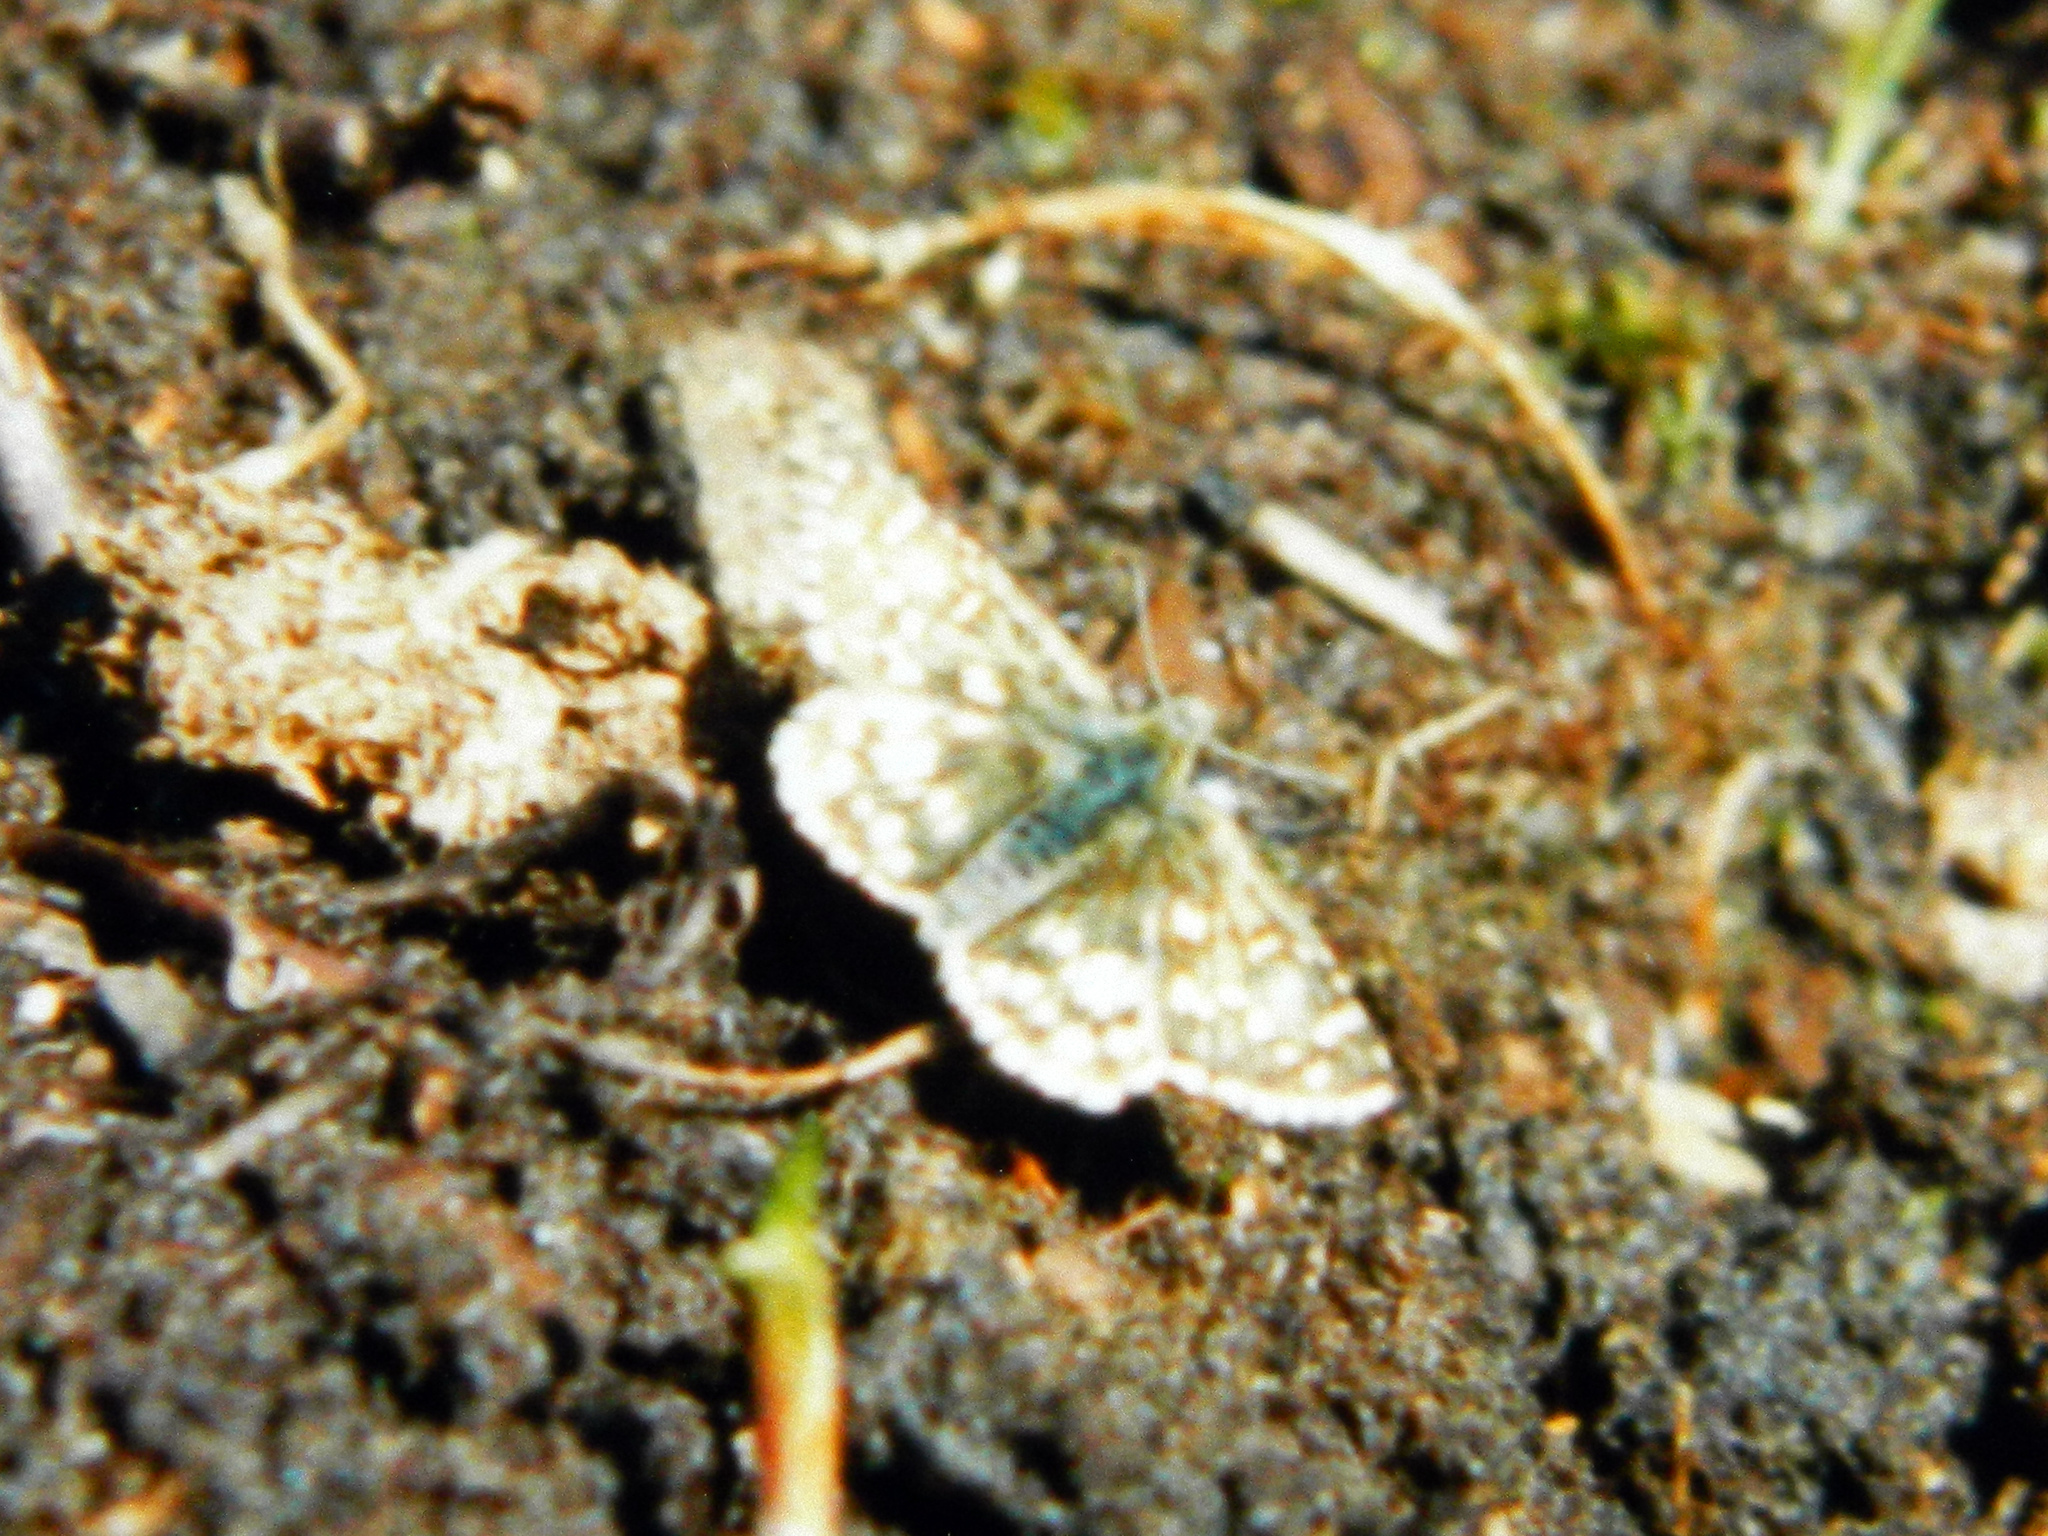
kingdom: Animalia
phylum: Arthropoda
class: Insecta
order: Lepidoptera
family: Hesperiidae
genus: Pyrgus
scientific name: Pyrgus centaureae
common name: Northern grizzled skipper
